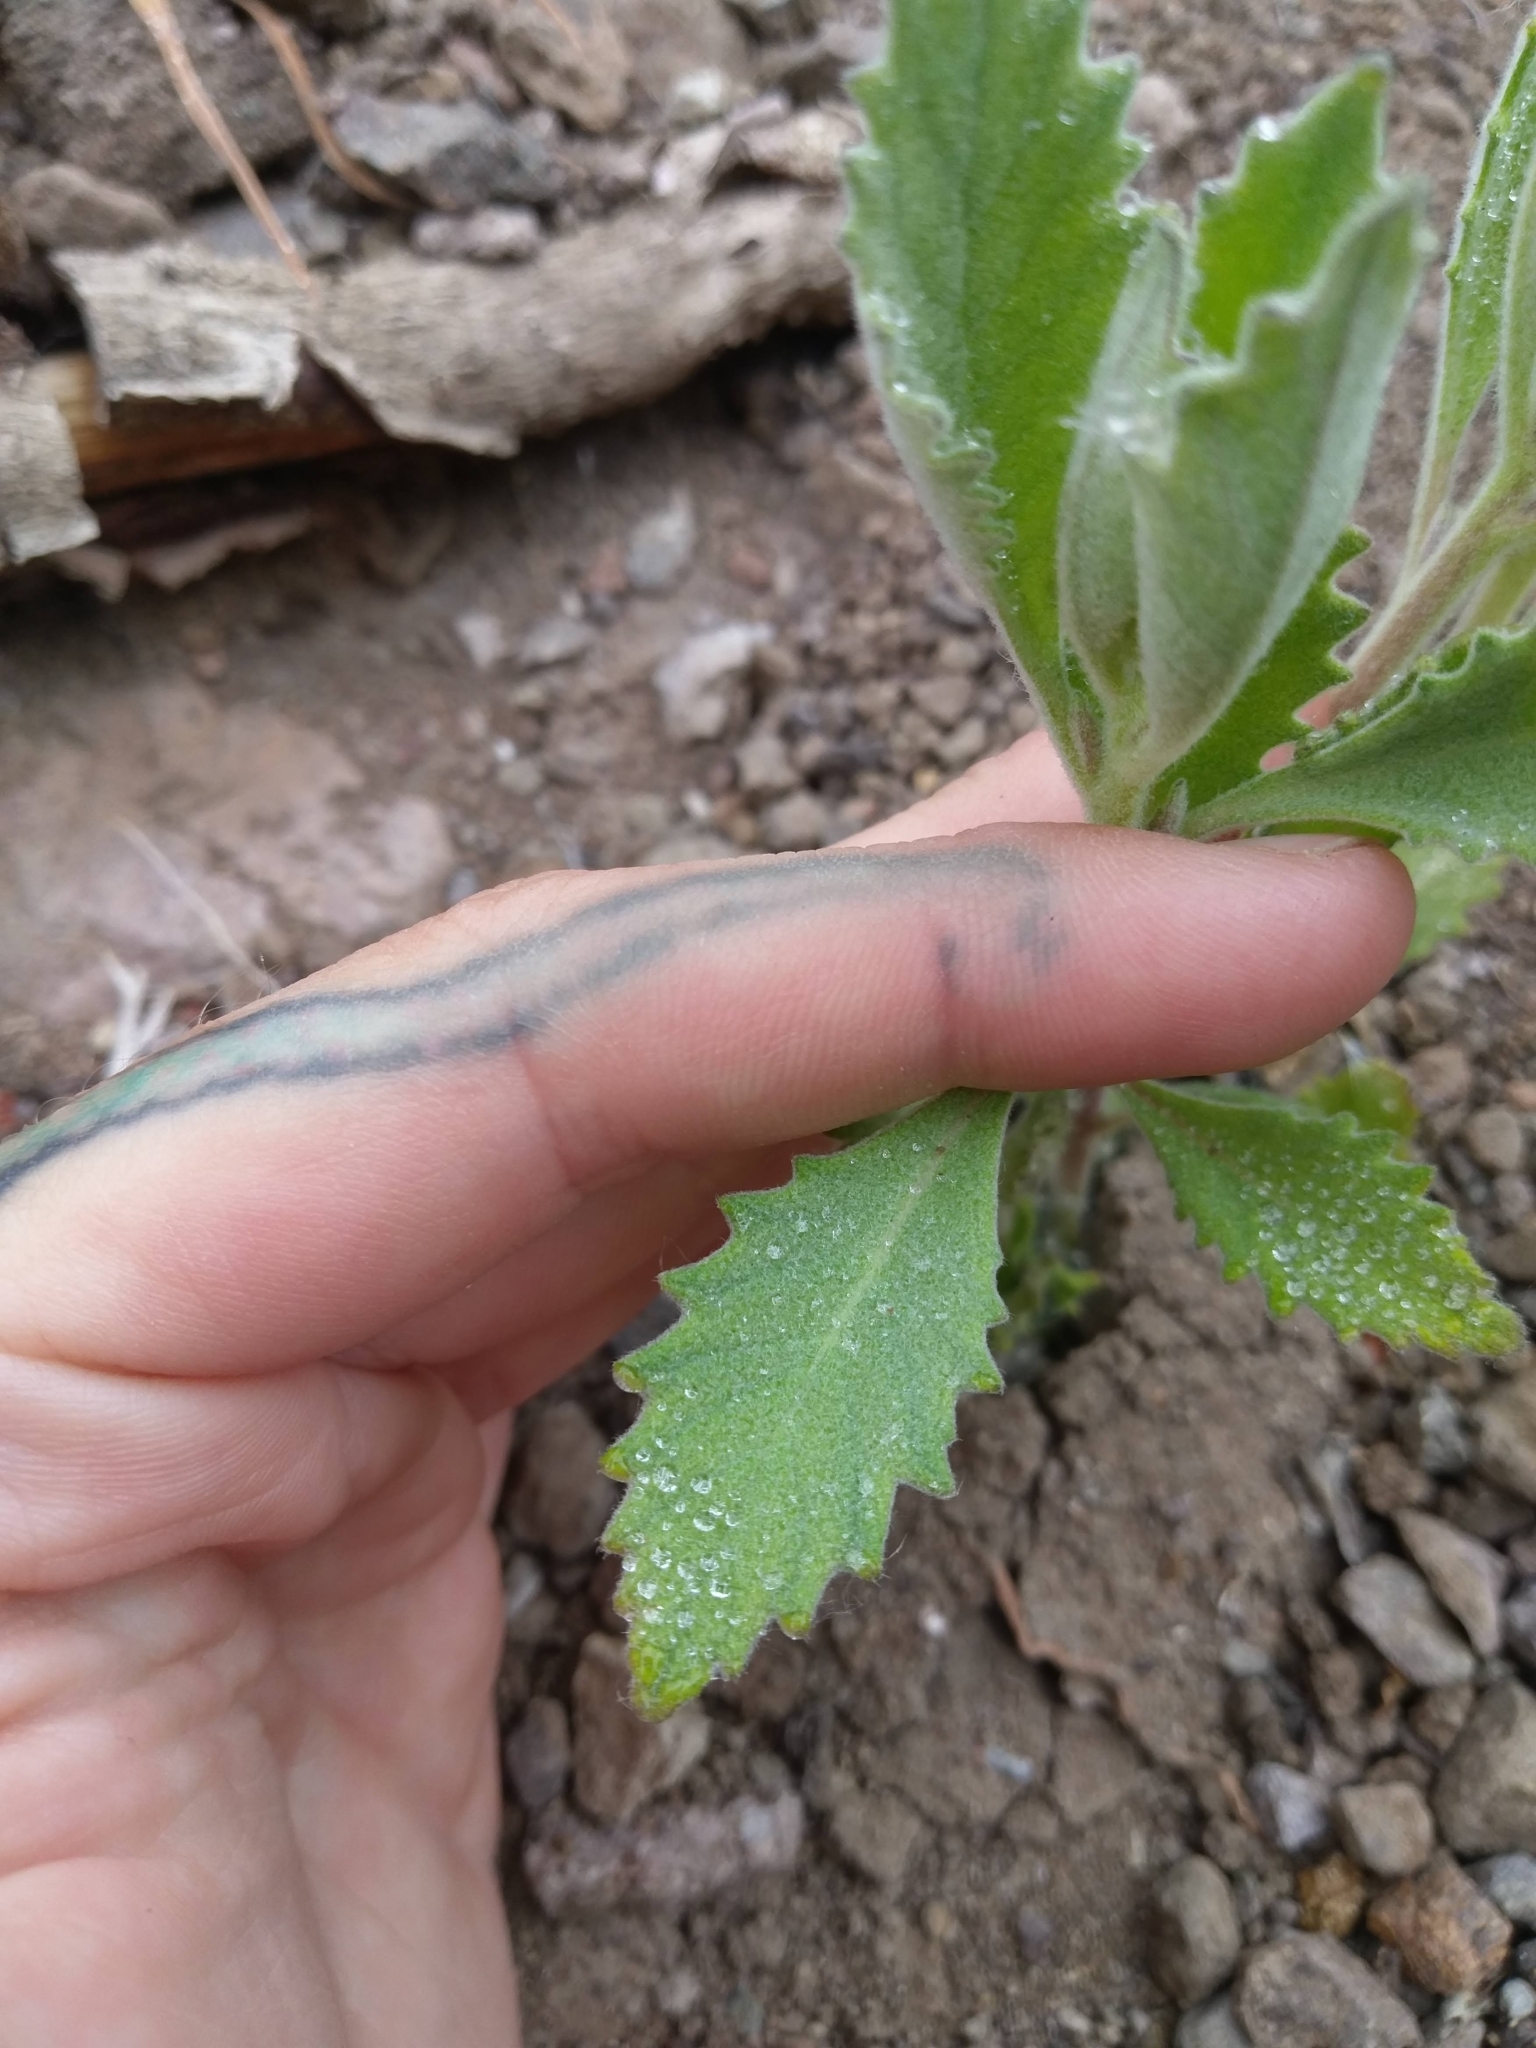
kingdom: Plantae
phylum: Tracheophyta
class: Magnoliopsida
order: Boraginales
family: Namaceae
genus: Eriodictyon
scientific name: Eriodictyon traskiae
